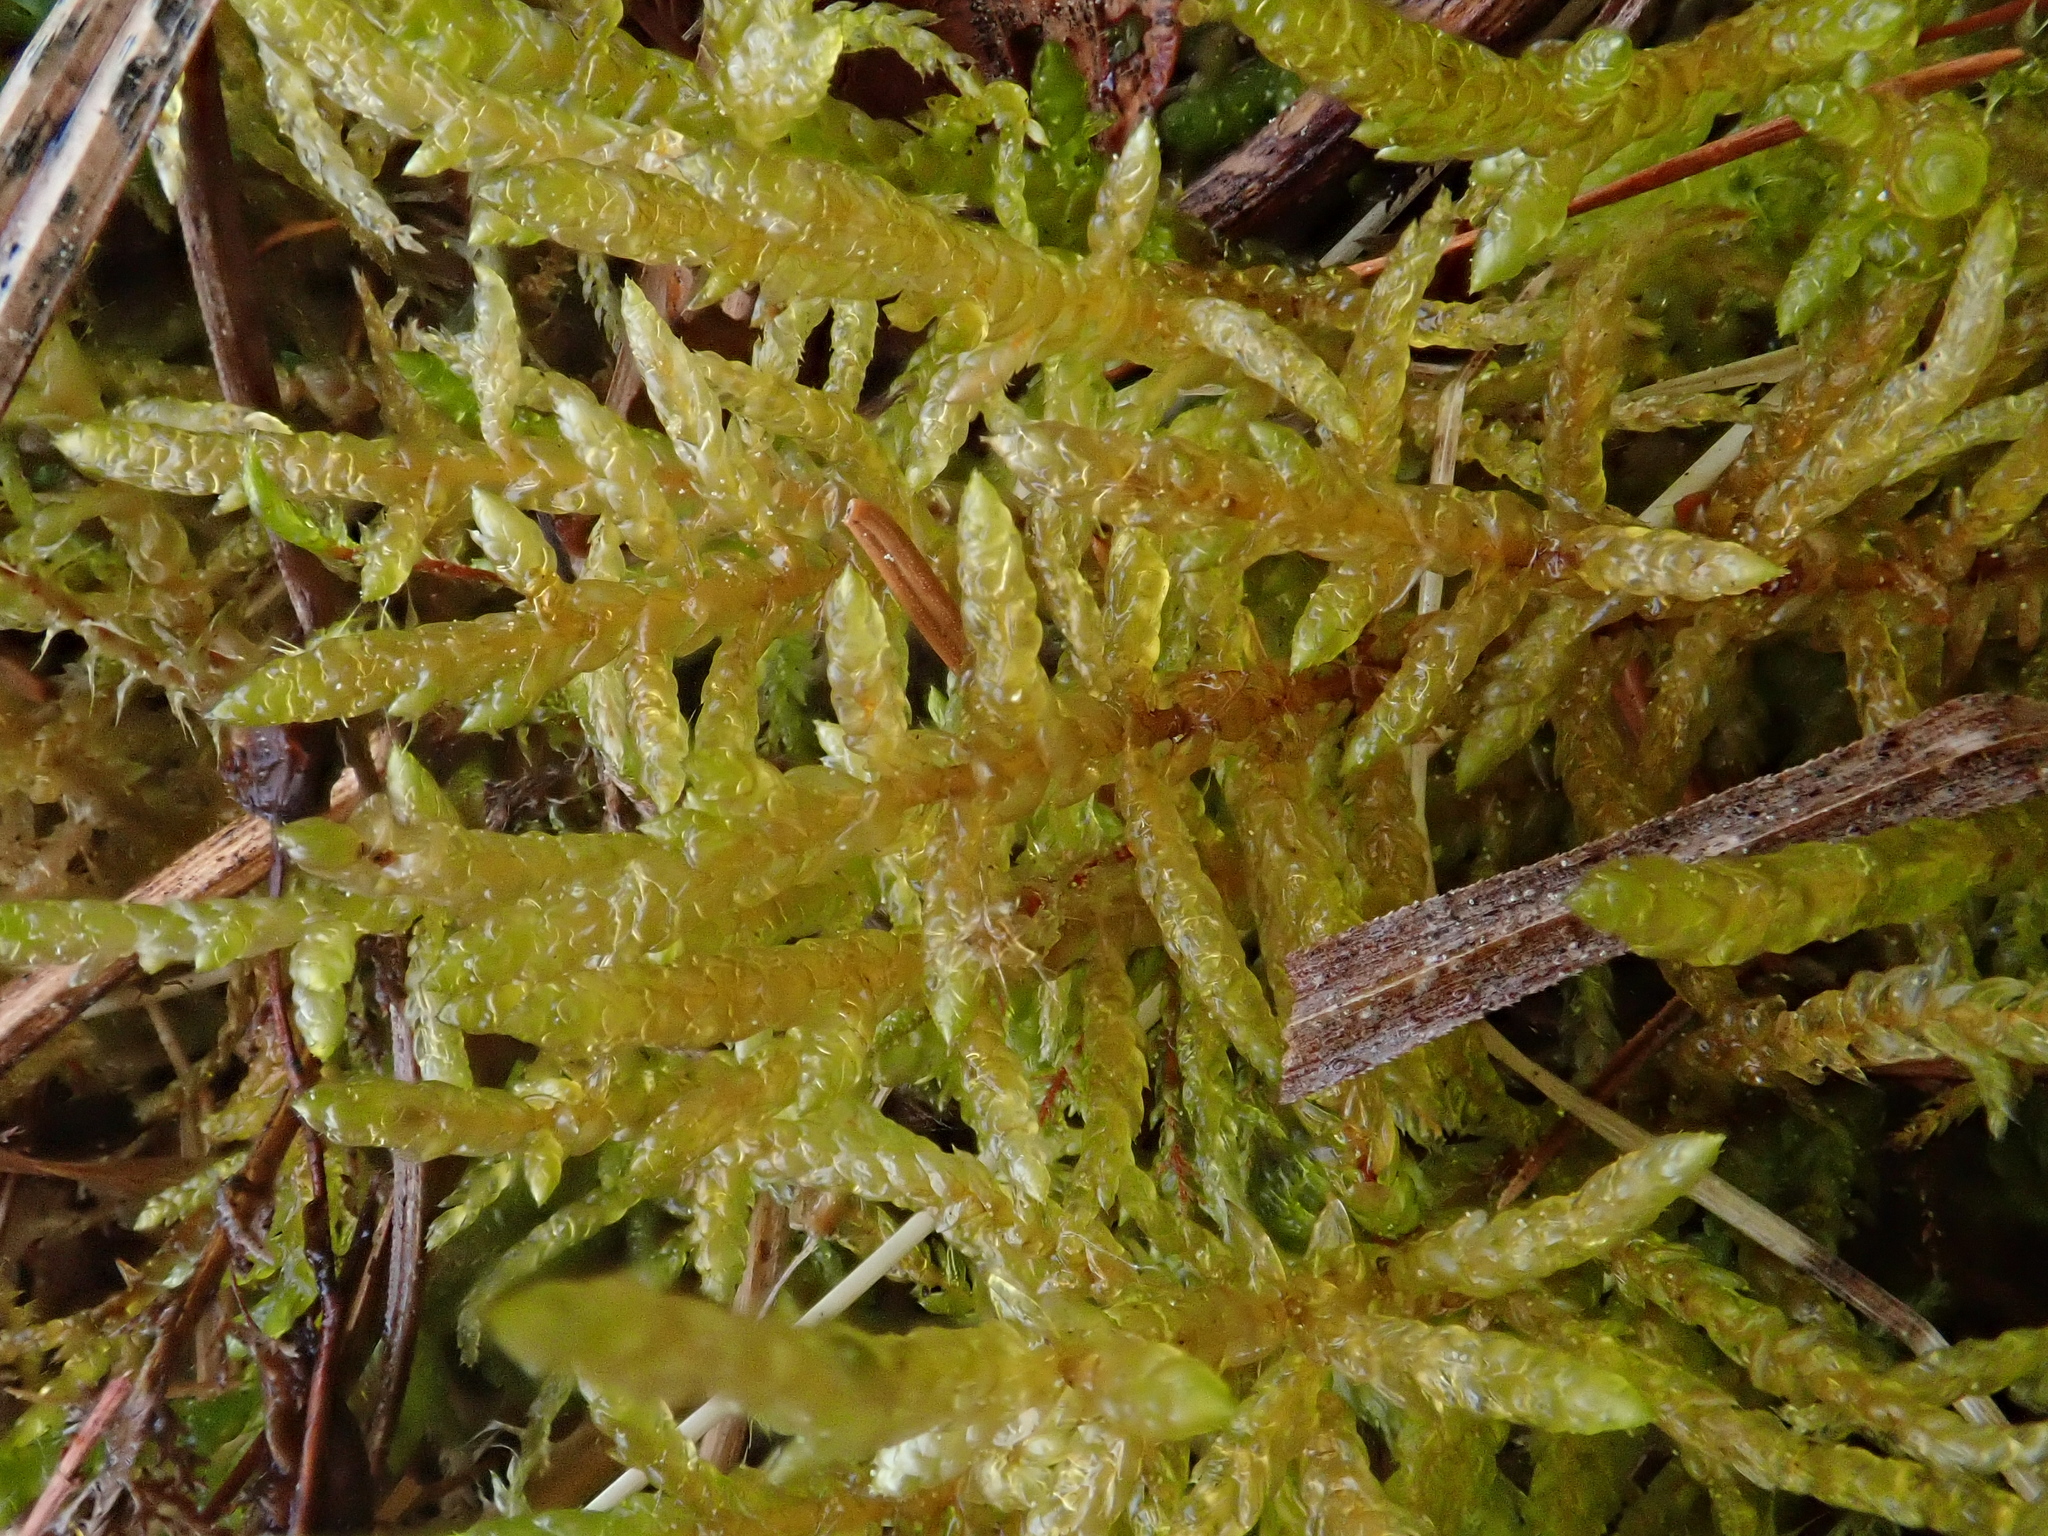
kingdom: Plantae
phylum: Bryophyta
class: Bryopsida
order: Hypnales
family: Entodontaceae
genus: Entodon
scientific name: Entodon concinnus
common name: Montagne's cylinder-moss
